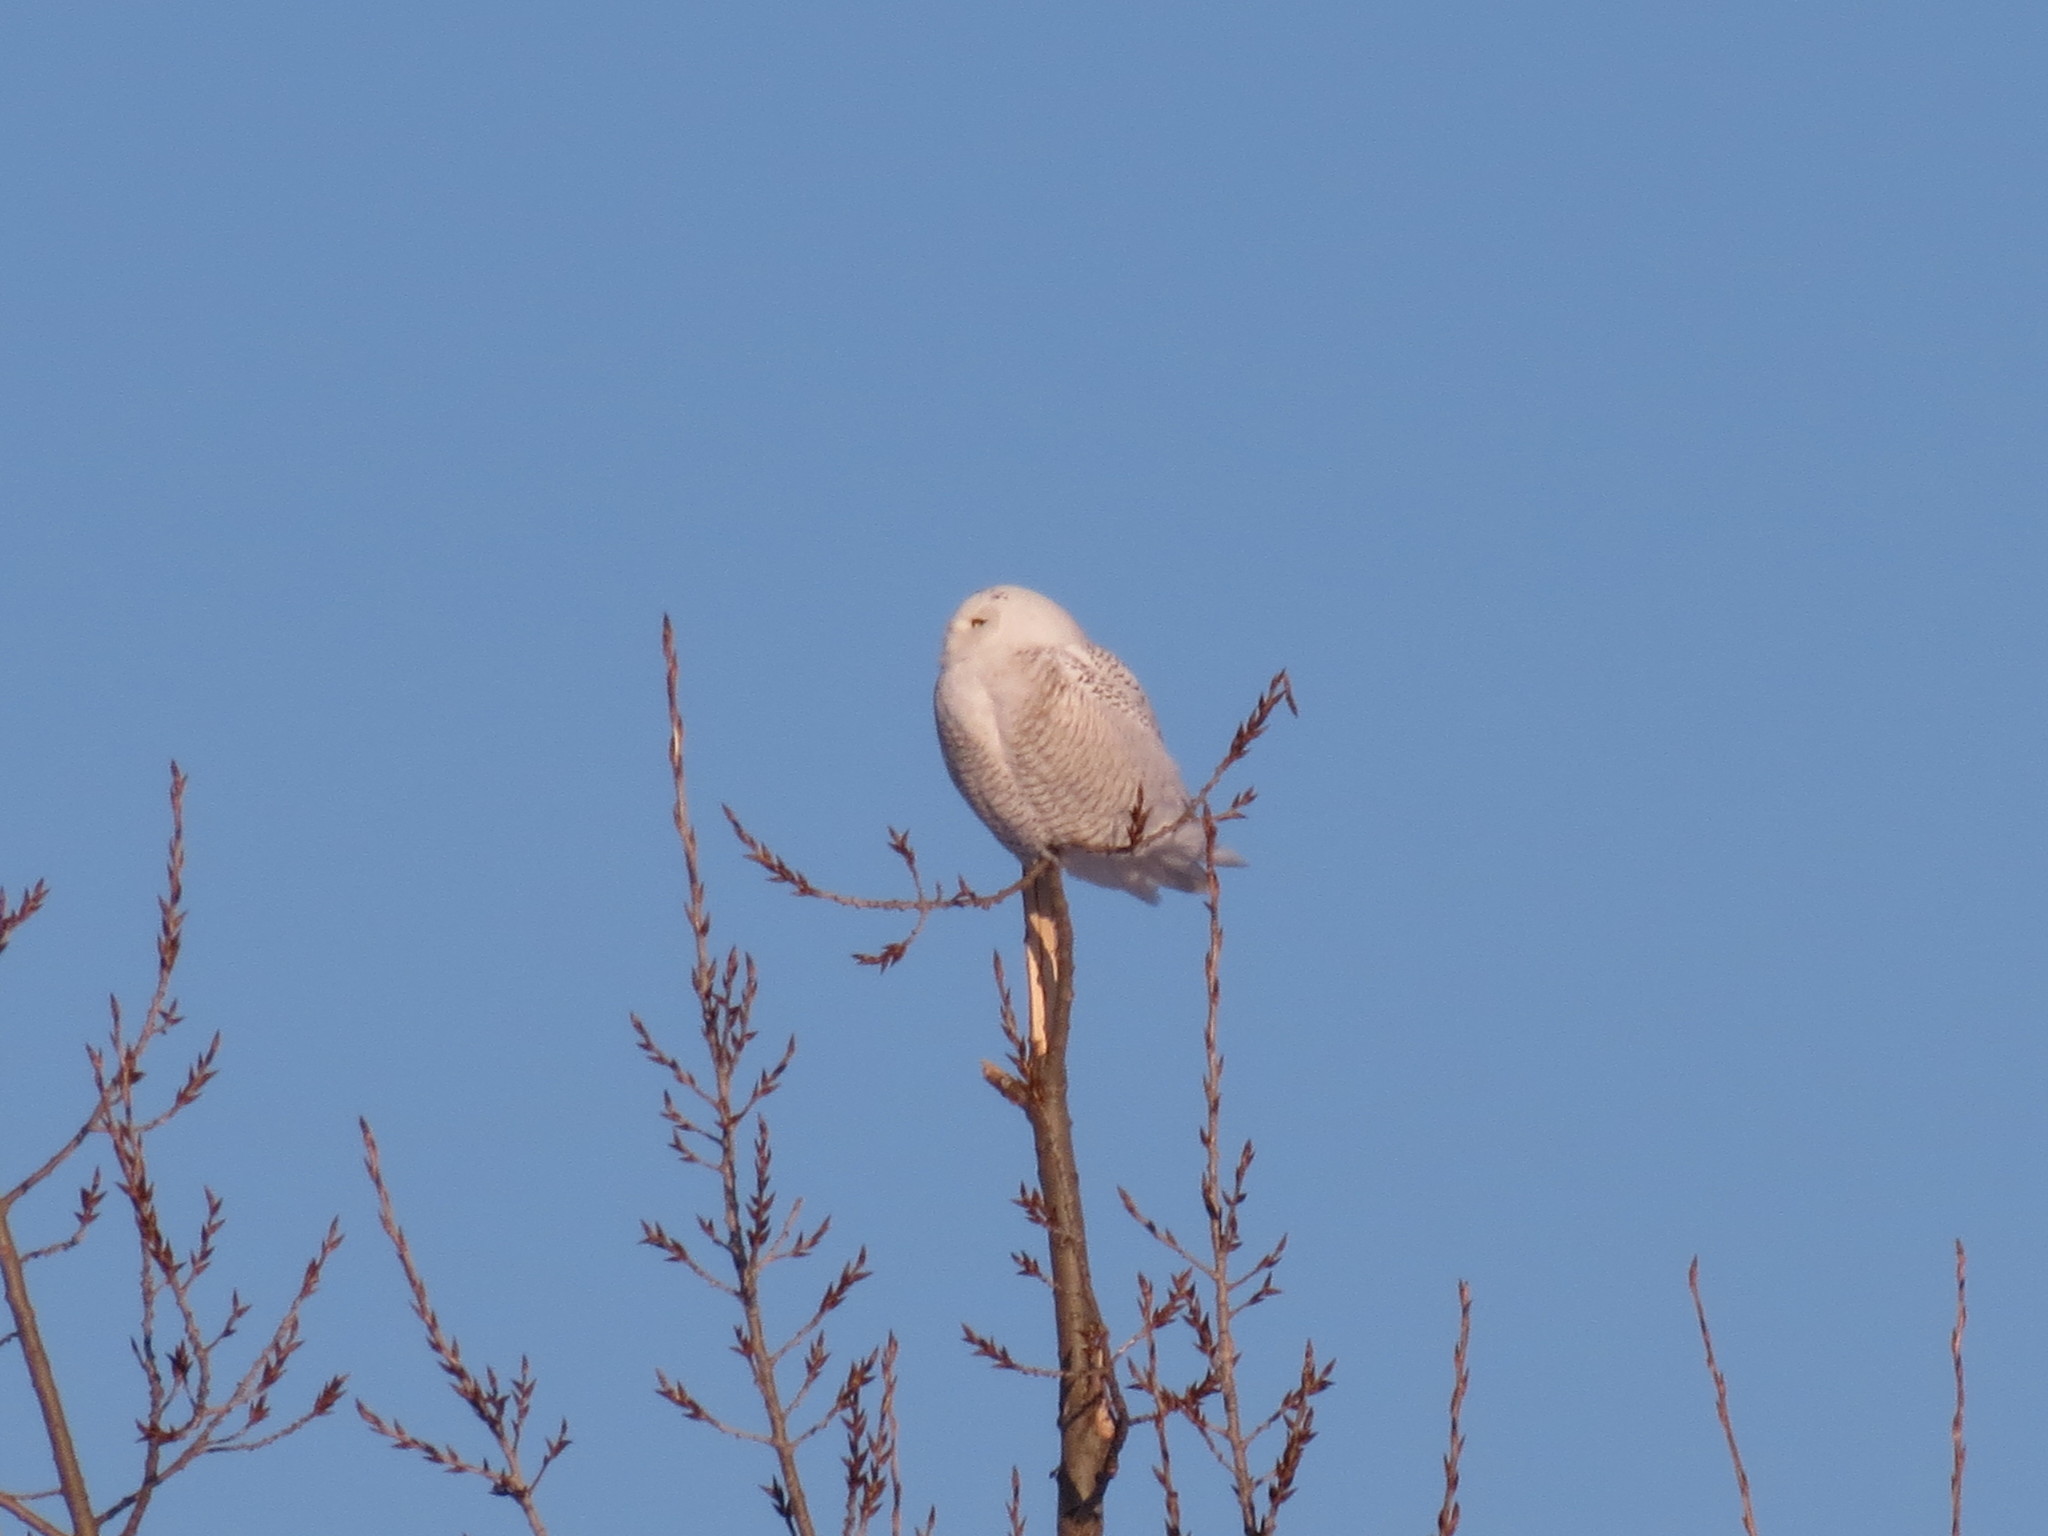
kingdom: Animalia
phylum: Chordata
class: Aves
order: Strigiformes
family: Strigidae
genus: Bubo
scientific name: Bubo scandiacus
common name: Snowy owl
